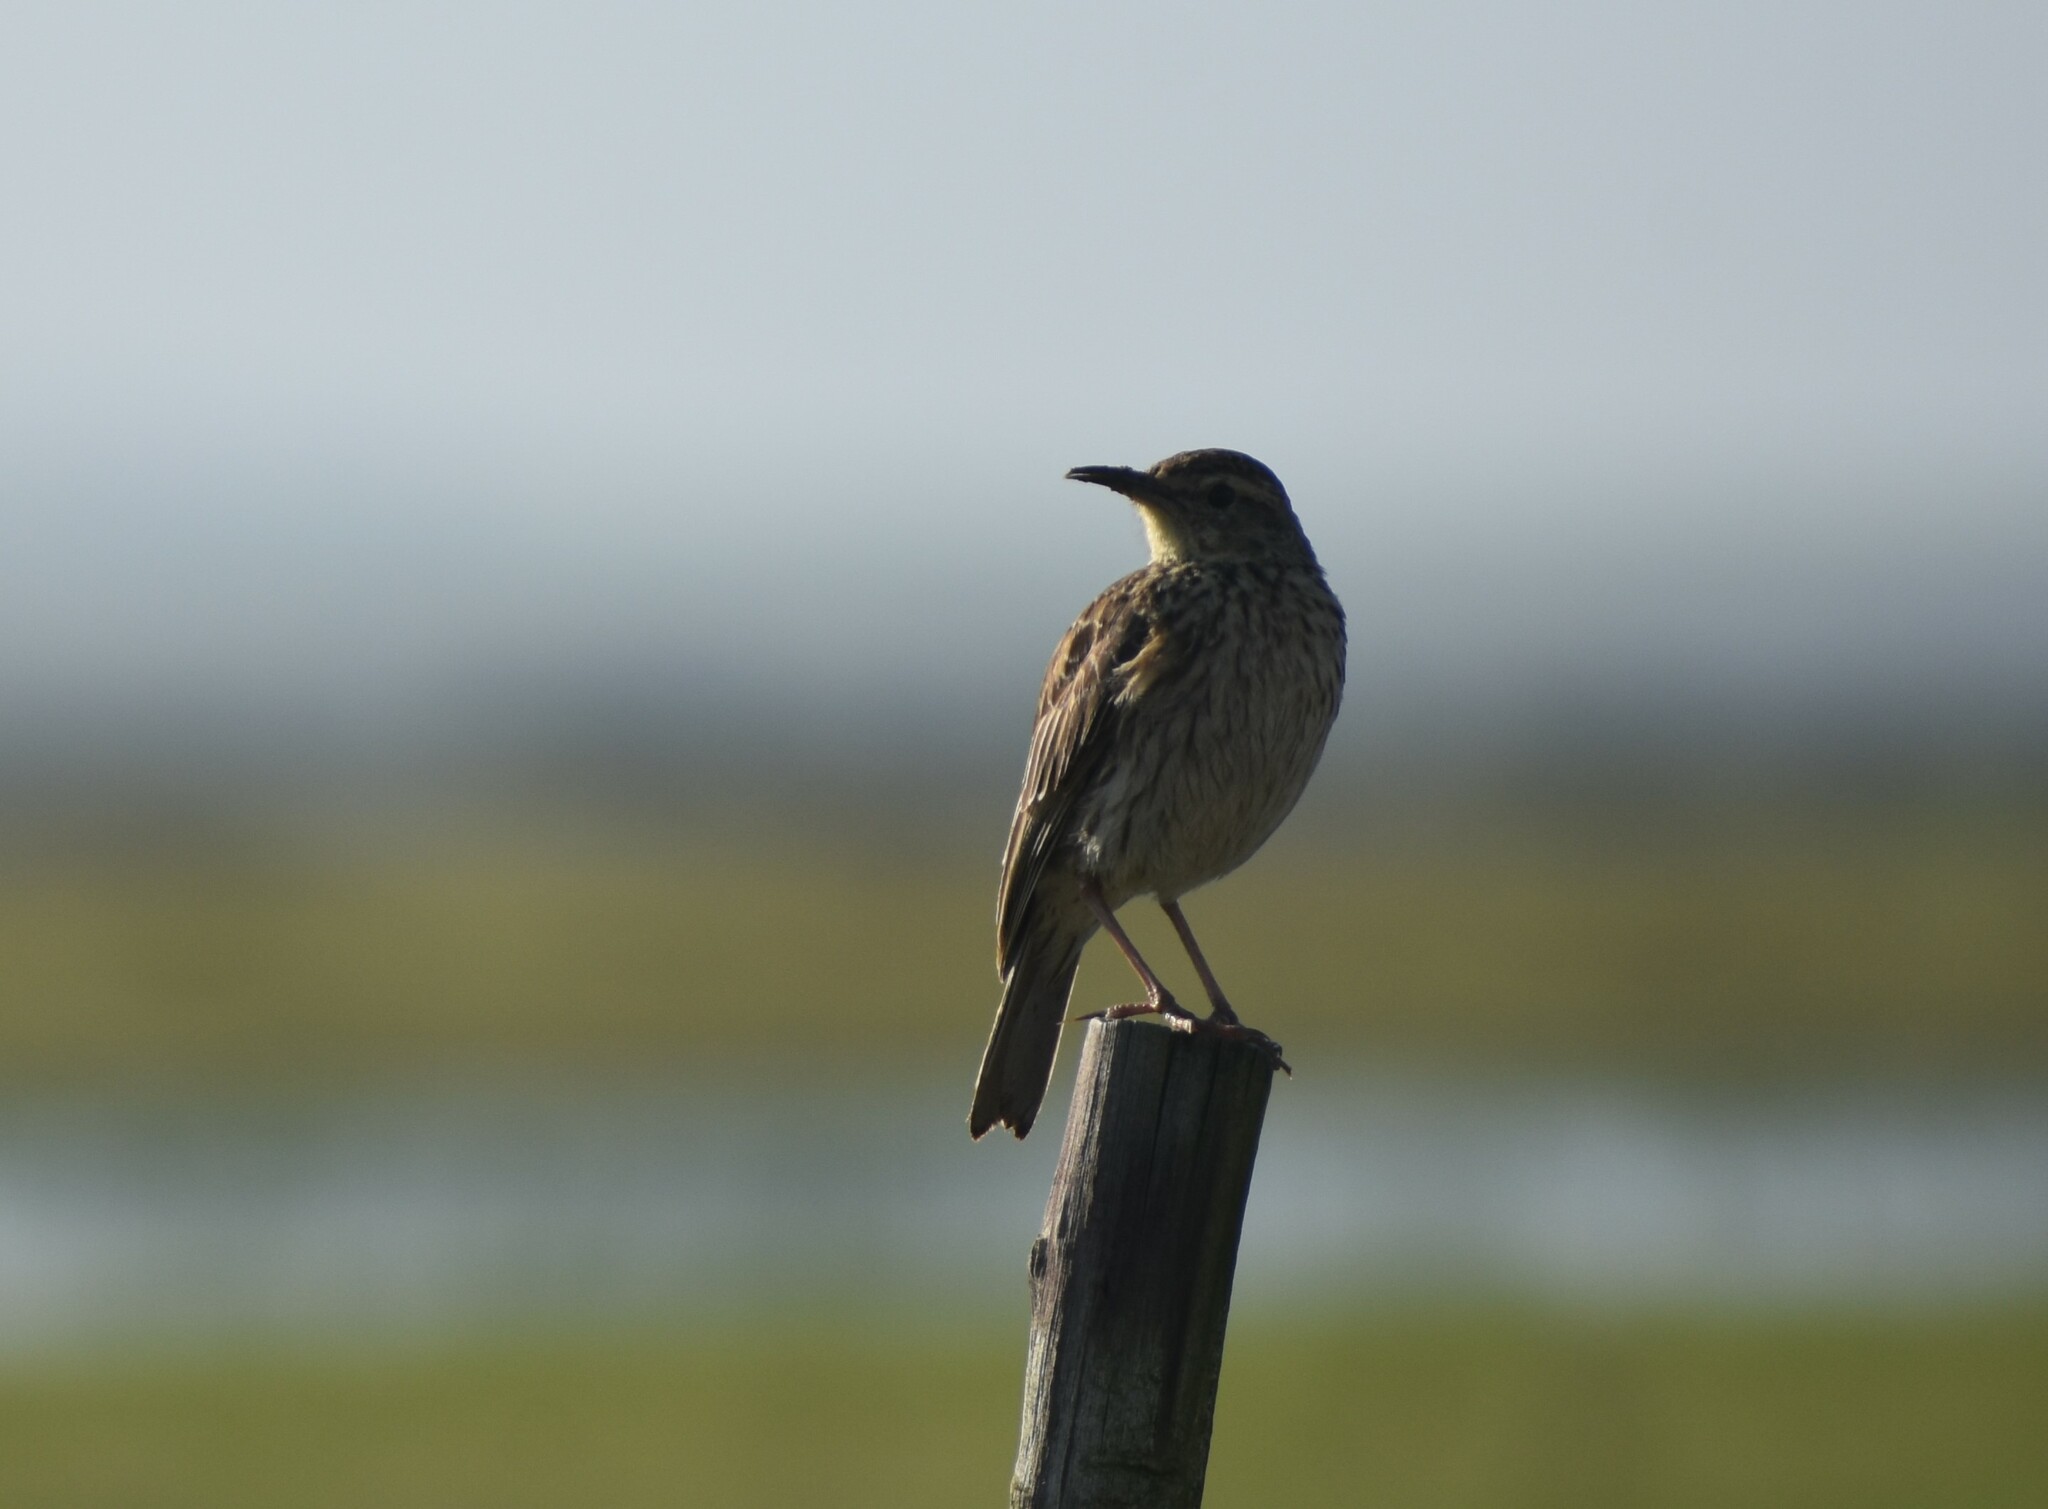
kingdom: Animalia
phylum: Chordata
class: Aves
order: Passeriformes
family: Alaudidae
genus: Certhilauda
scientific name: Certhilauda curvirostris
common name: Cape long-billed lark
